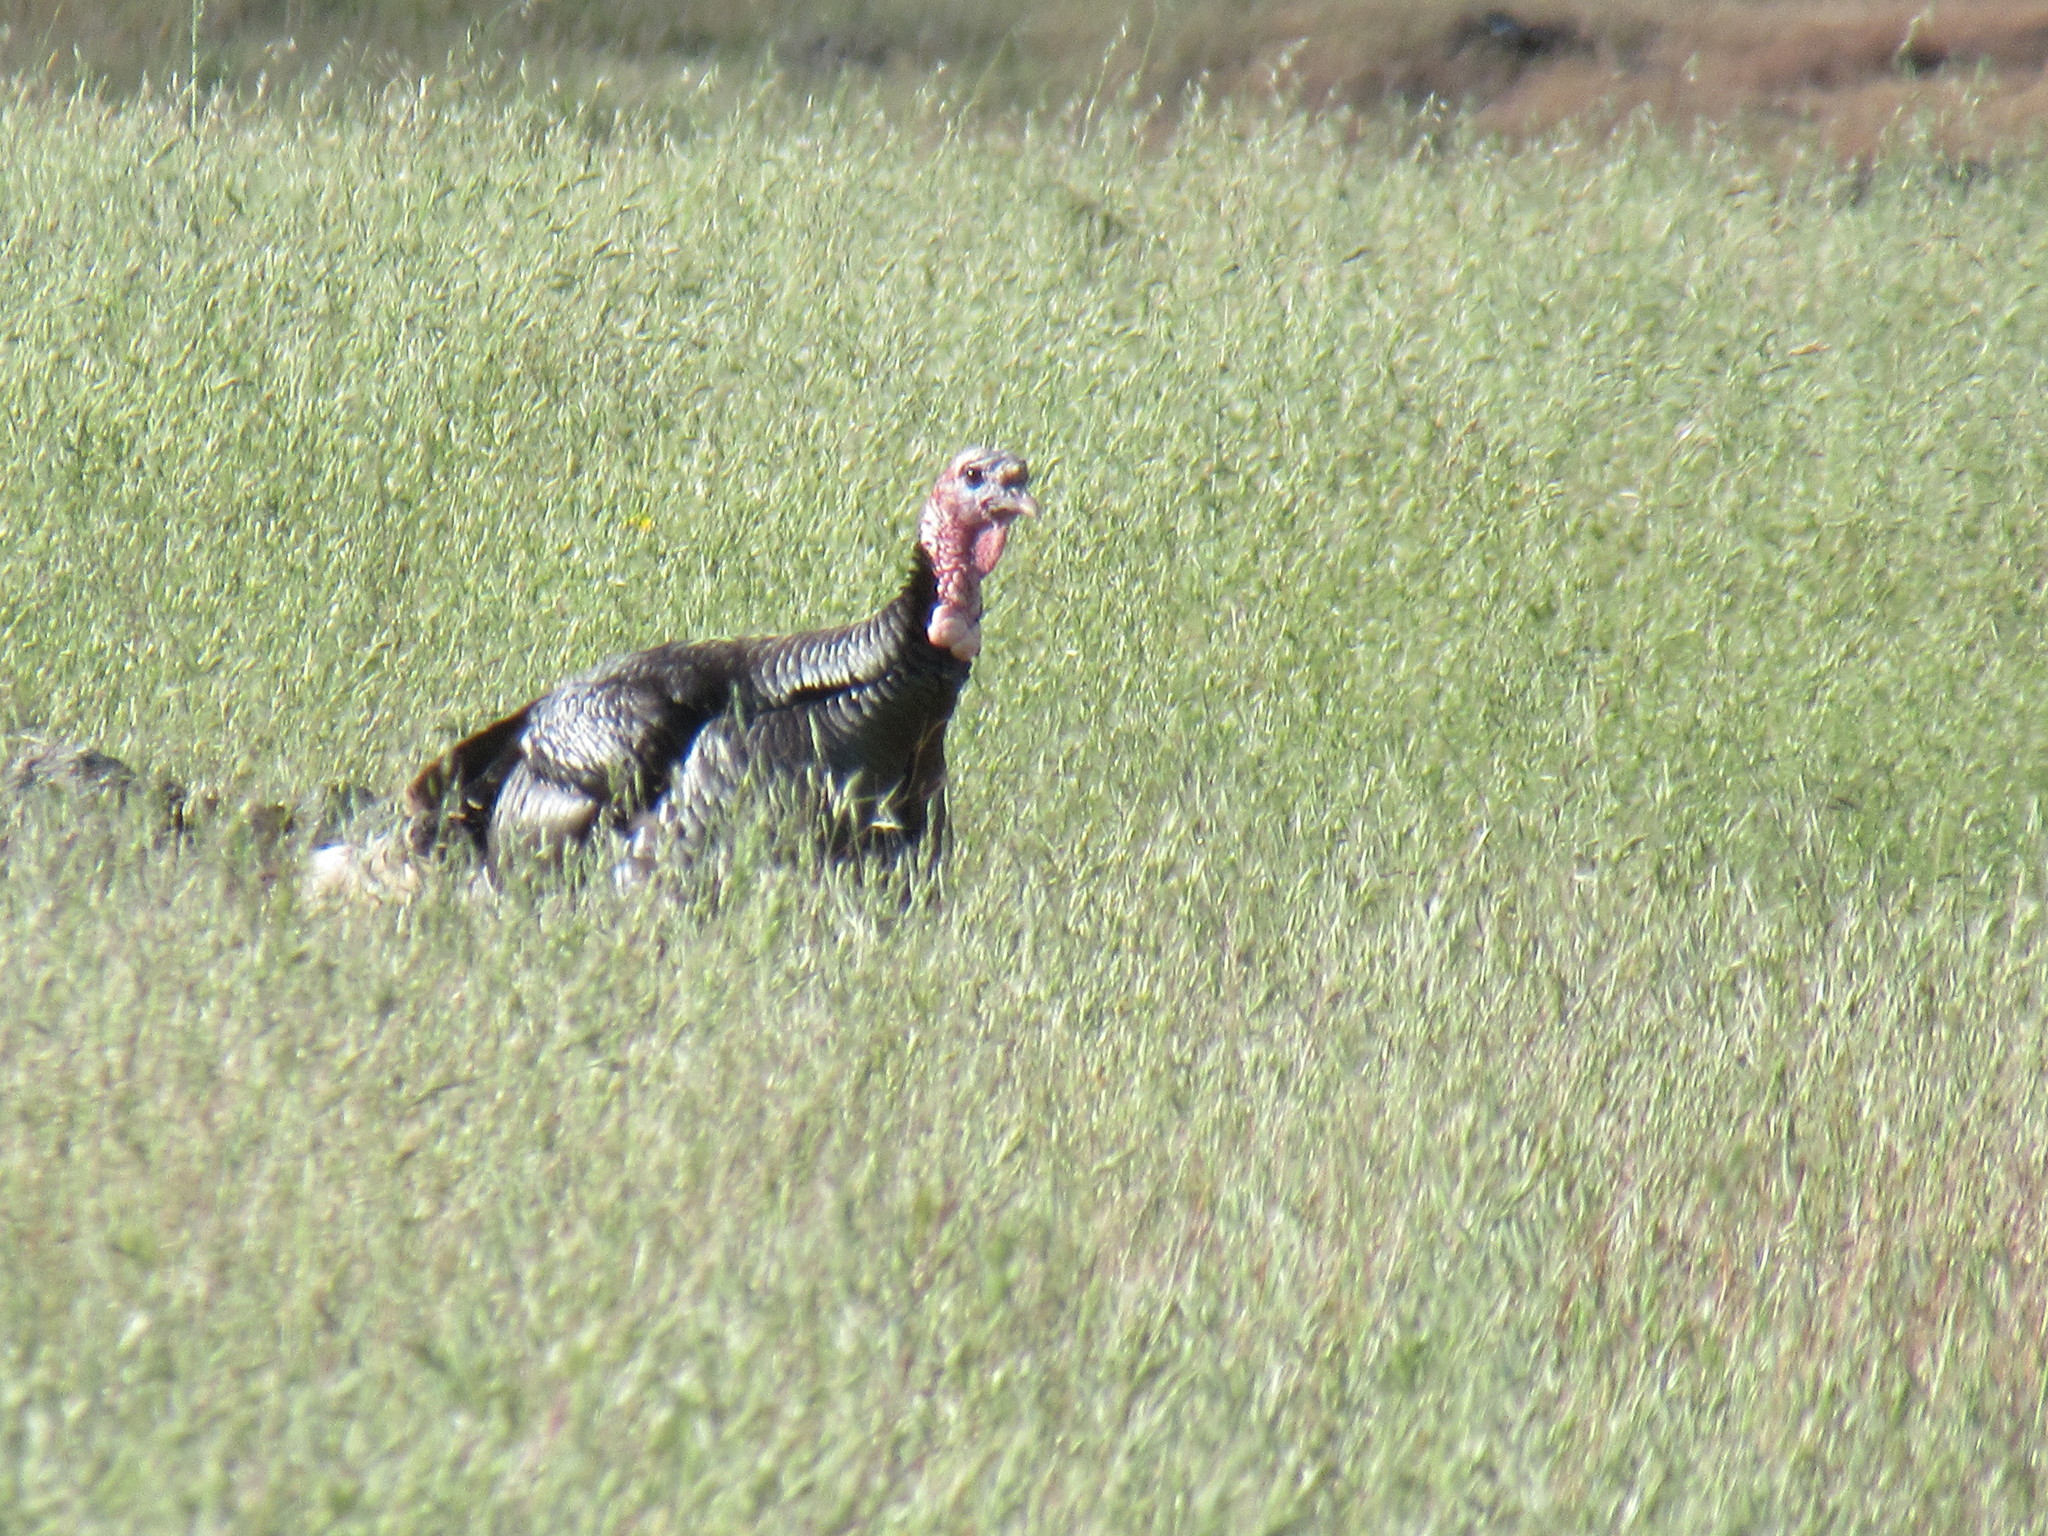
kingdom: Animalia
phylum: Chordata
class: Aves
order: Galliformes
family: Phasianidae
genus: Meleagris
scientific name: Meleagris gallopavo
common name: Wild turkey
